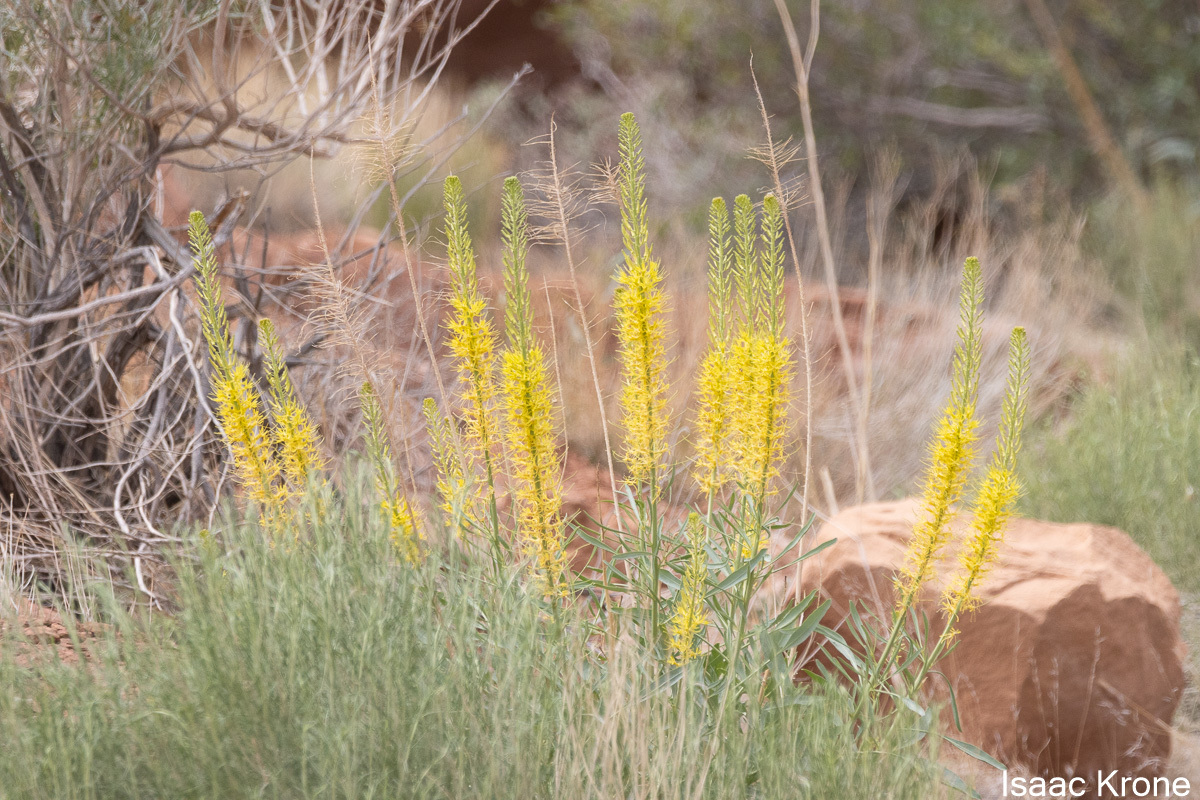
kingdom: Plantae
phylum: Tracheophyta
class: Magnoliopsida
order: Brassicales
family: Brassicaceae
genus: Stanleya
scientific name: Stanleya pinnata
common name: Prince's-plume
